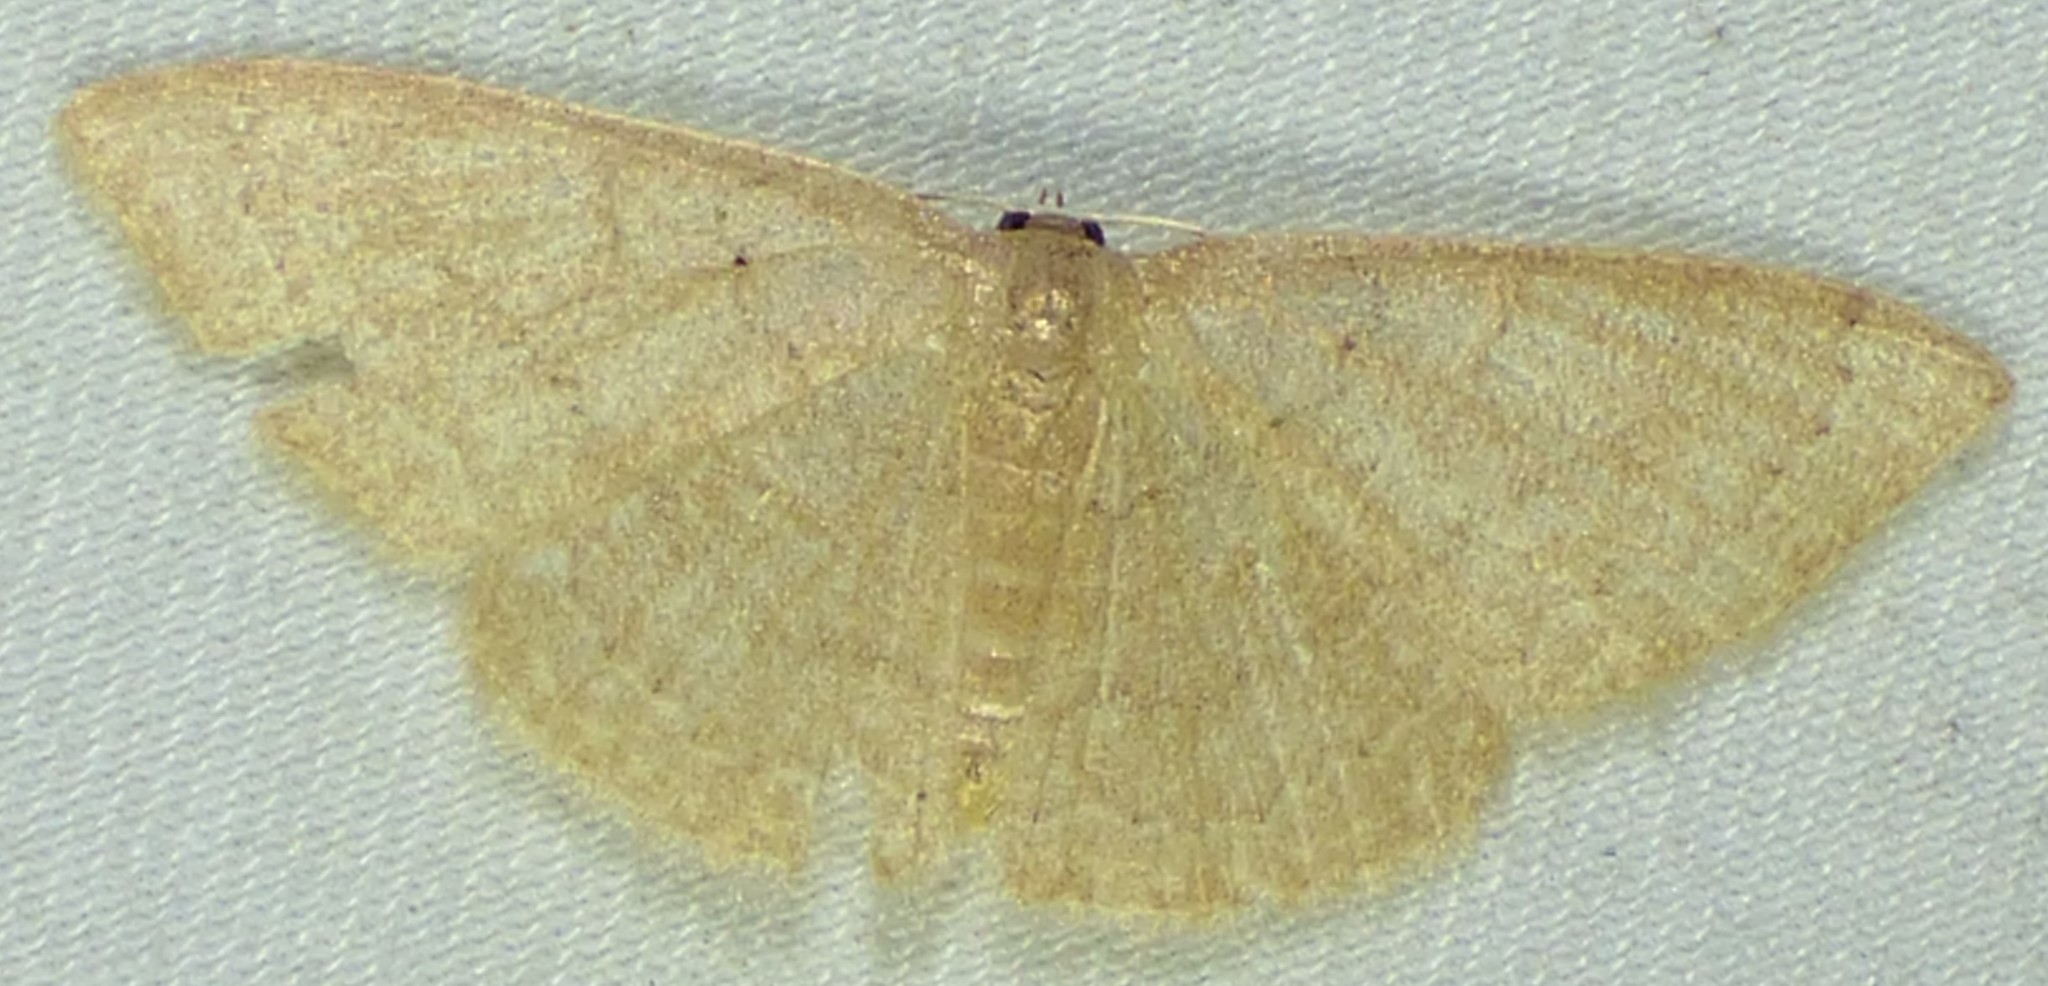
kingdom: Animalia
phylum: Arthropoda
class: Insecta
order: Lepidoptera
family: Geometridae
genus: Pleuroprucha
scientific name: Pleuroprucha insulsaria
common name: Common tan wave
